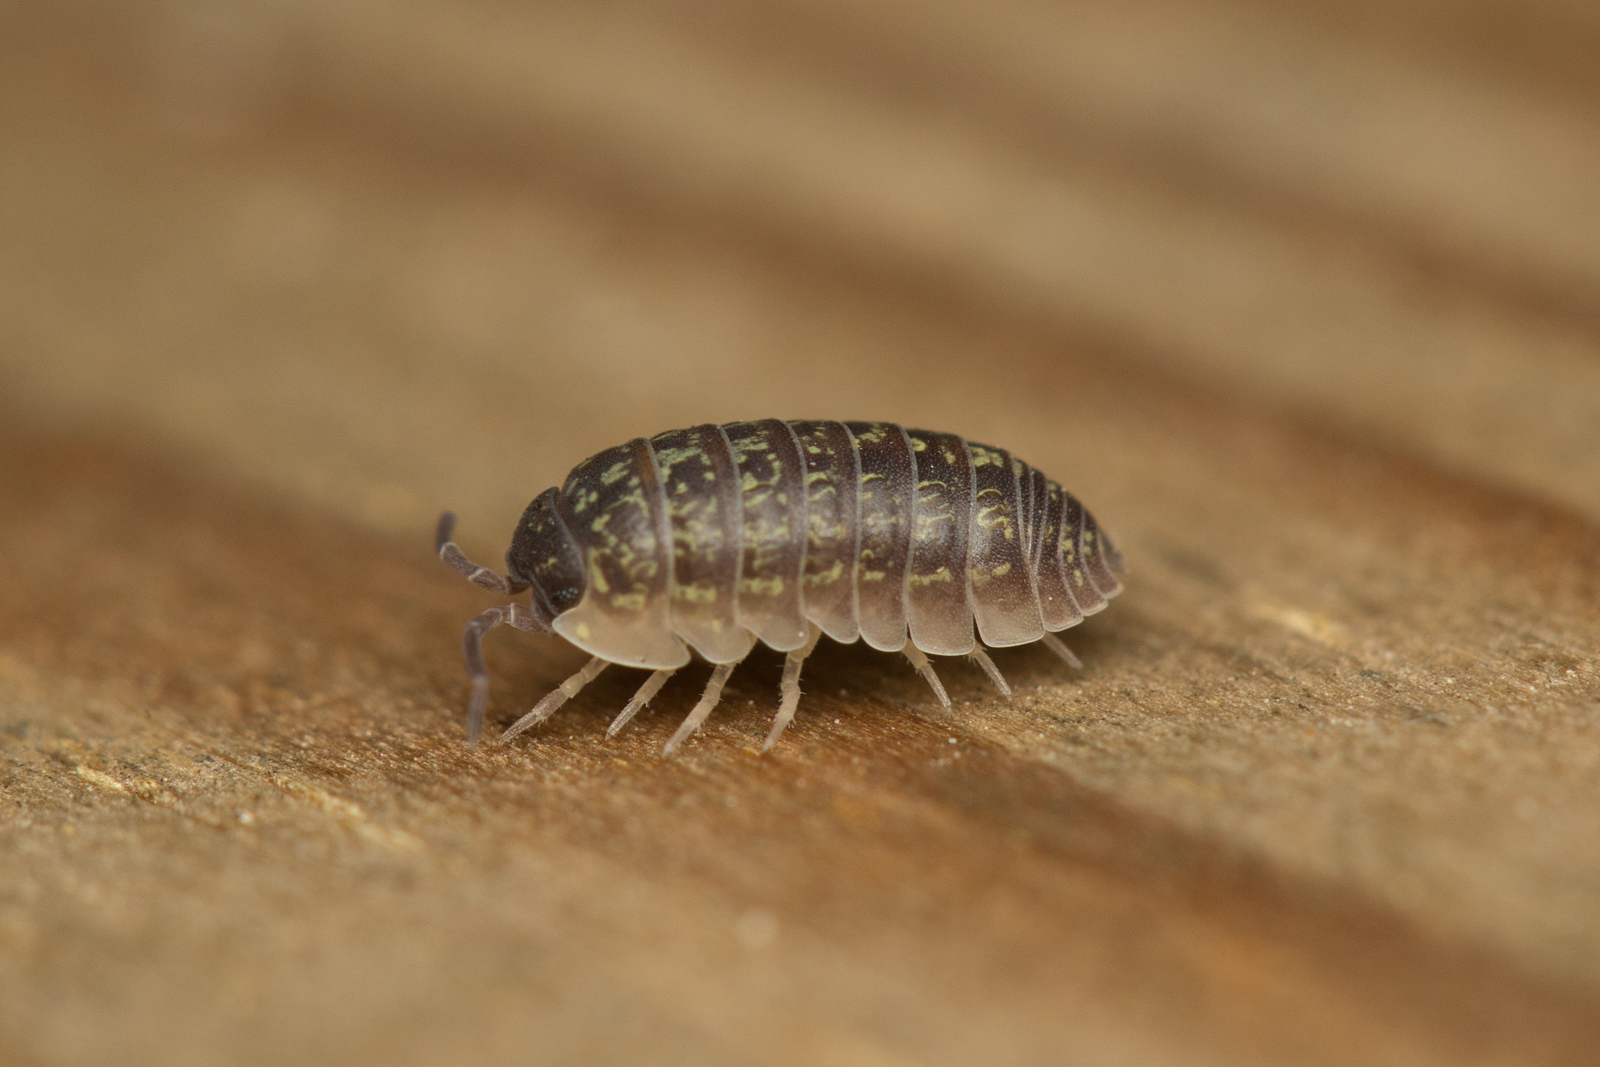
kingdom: Animalia
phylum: Arthropoda
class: Malacostraca
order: Isopoda
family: Armadillidiidae
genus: Armadillidium
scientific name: Armadillidium versicolor
